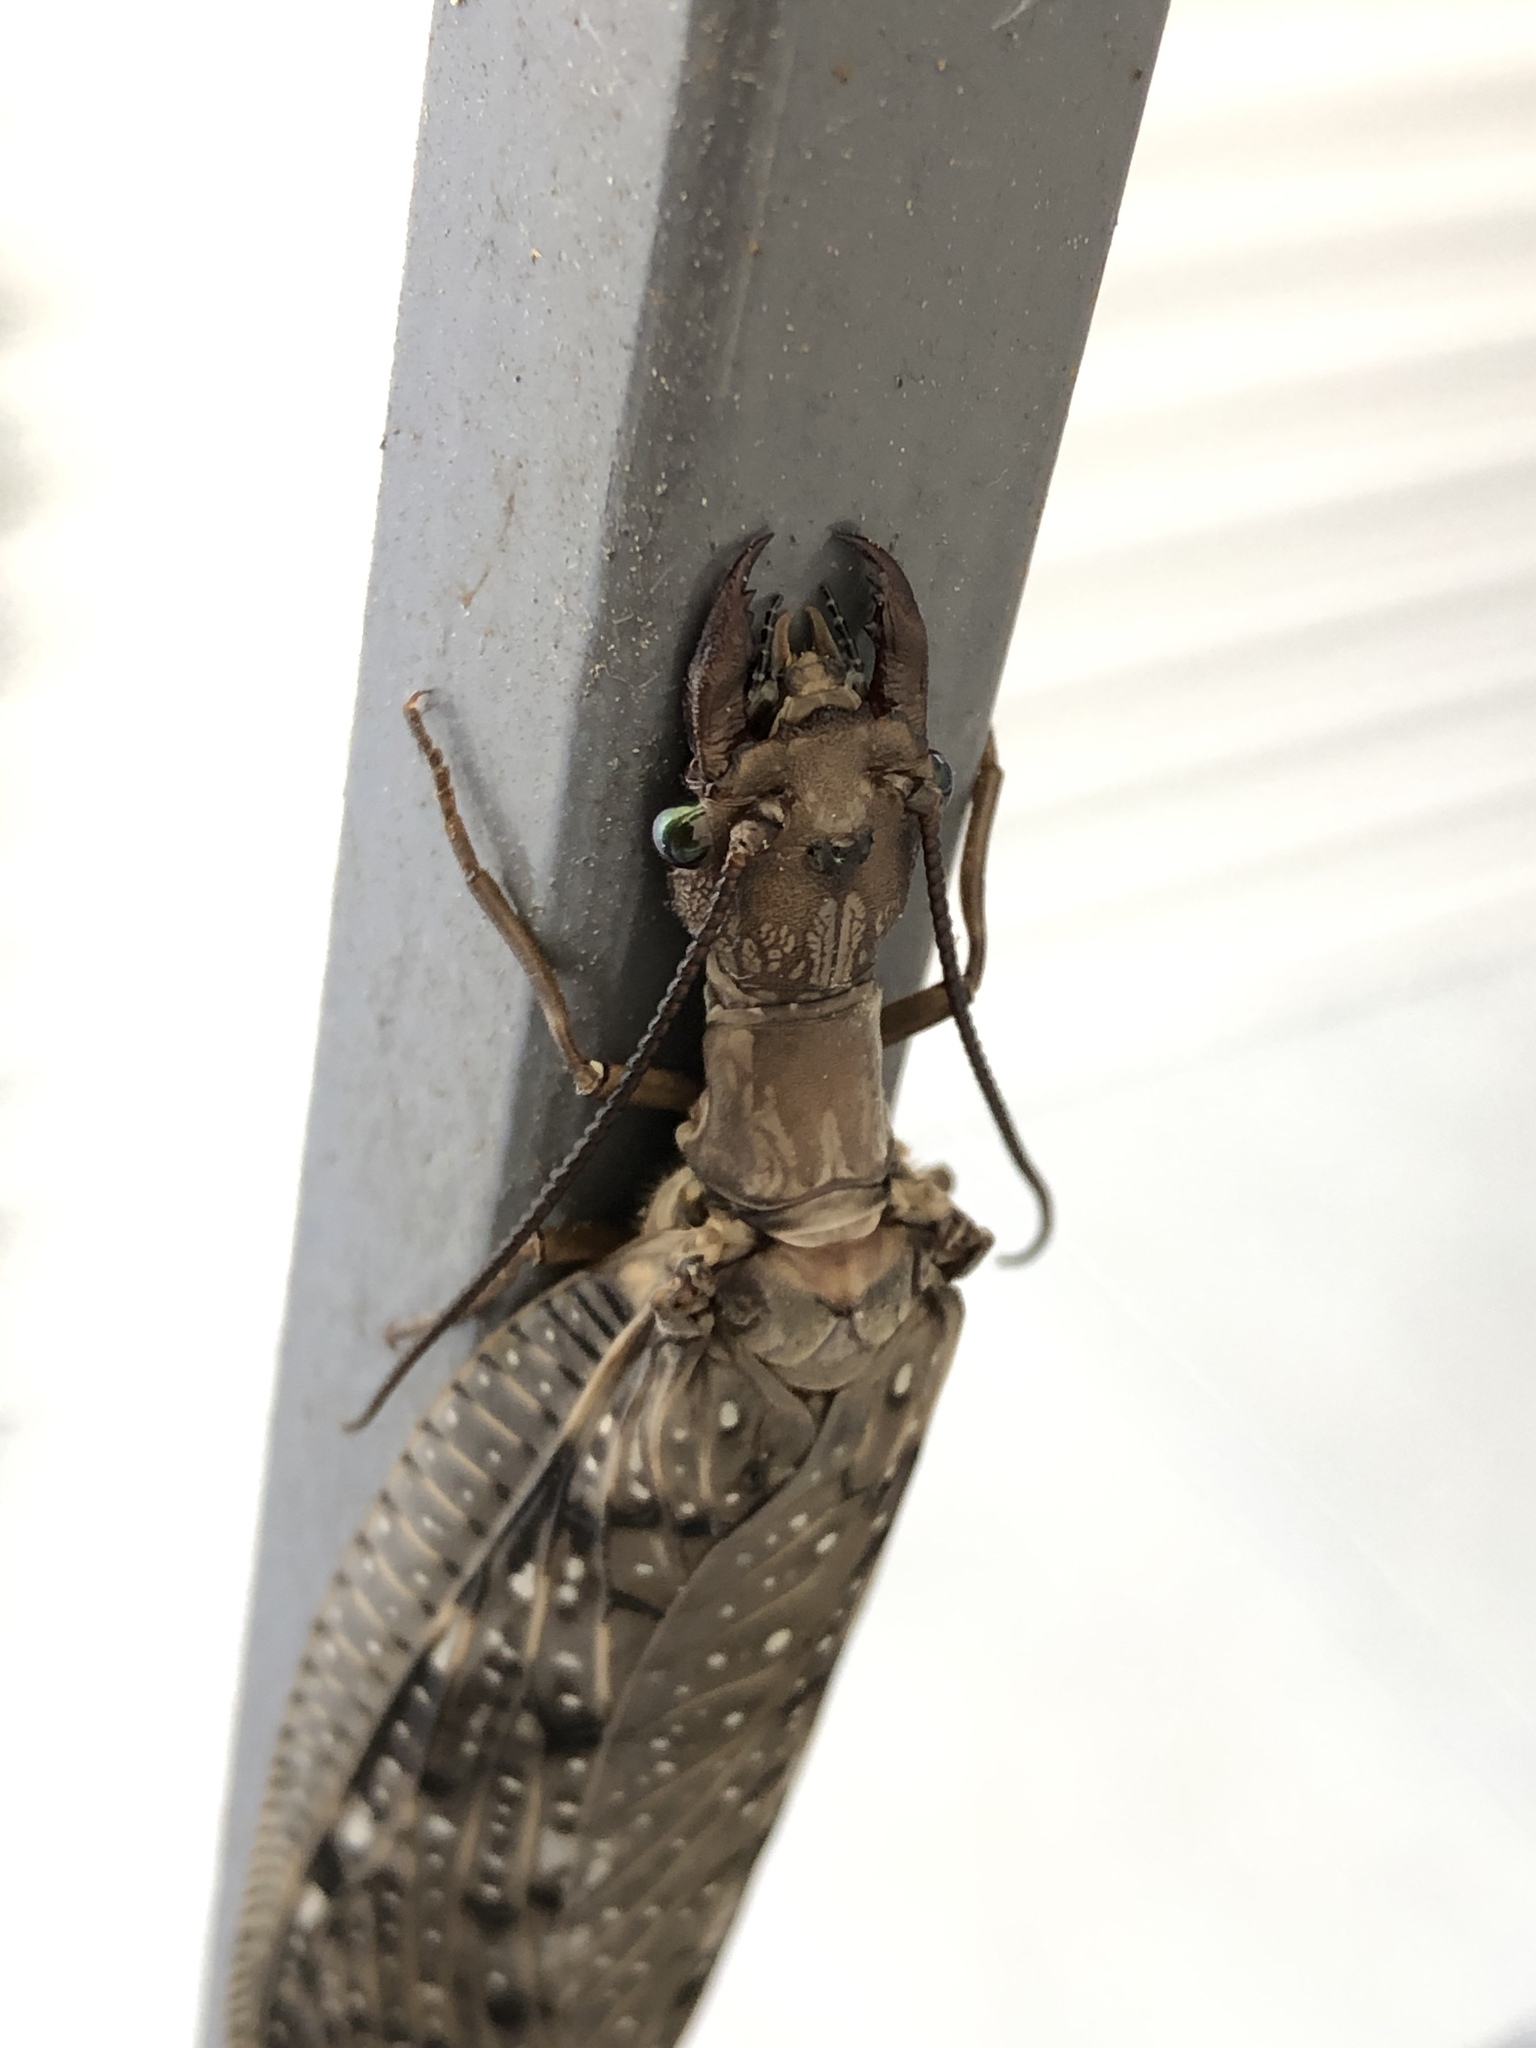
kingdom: Animalia
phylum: Arthropoda
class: Insecta
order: Megaloptera
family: Corydalidae
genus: Corydalus
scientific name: Corydalus cornutus
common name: Dobsonfly
